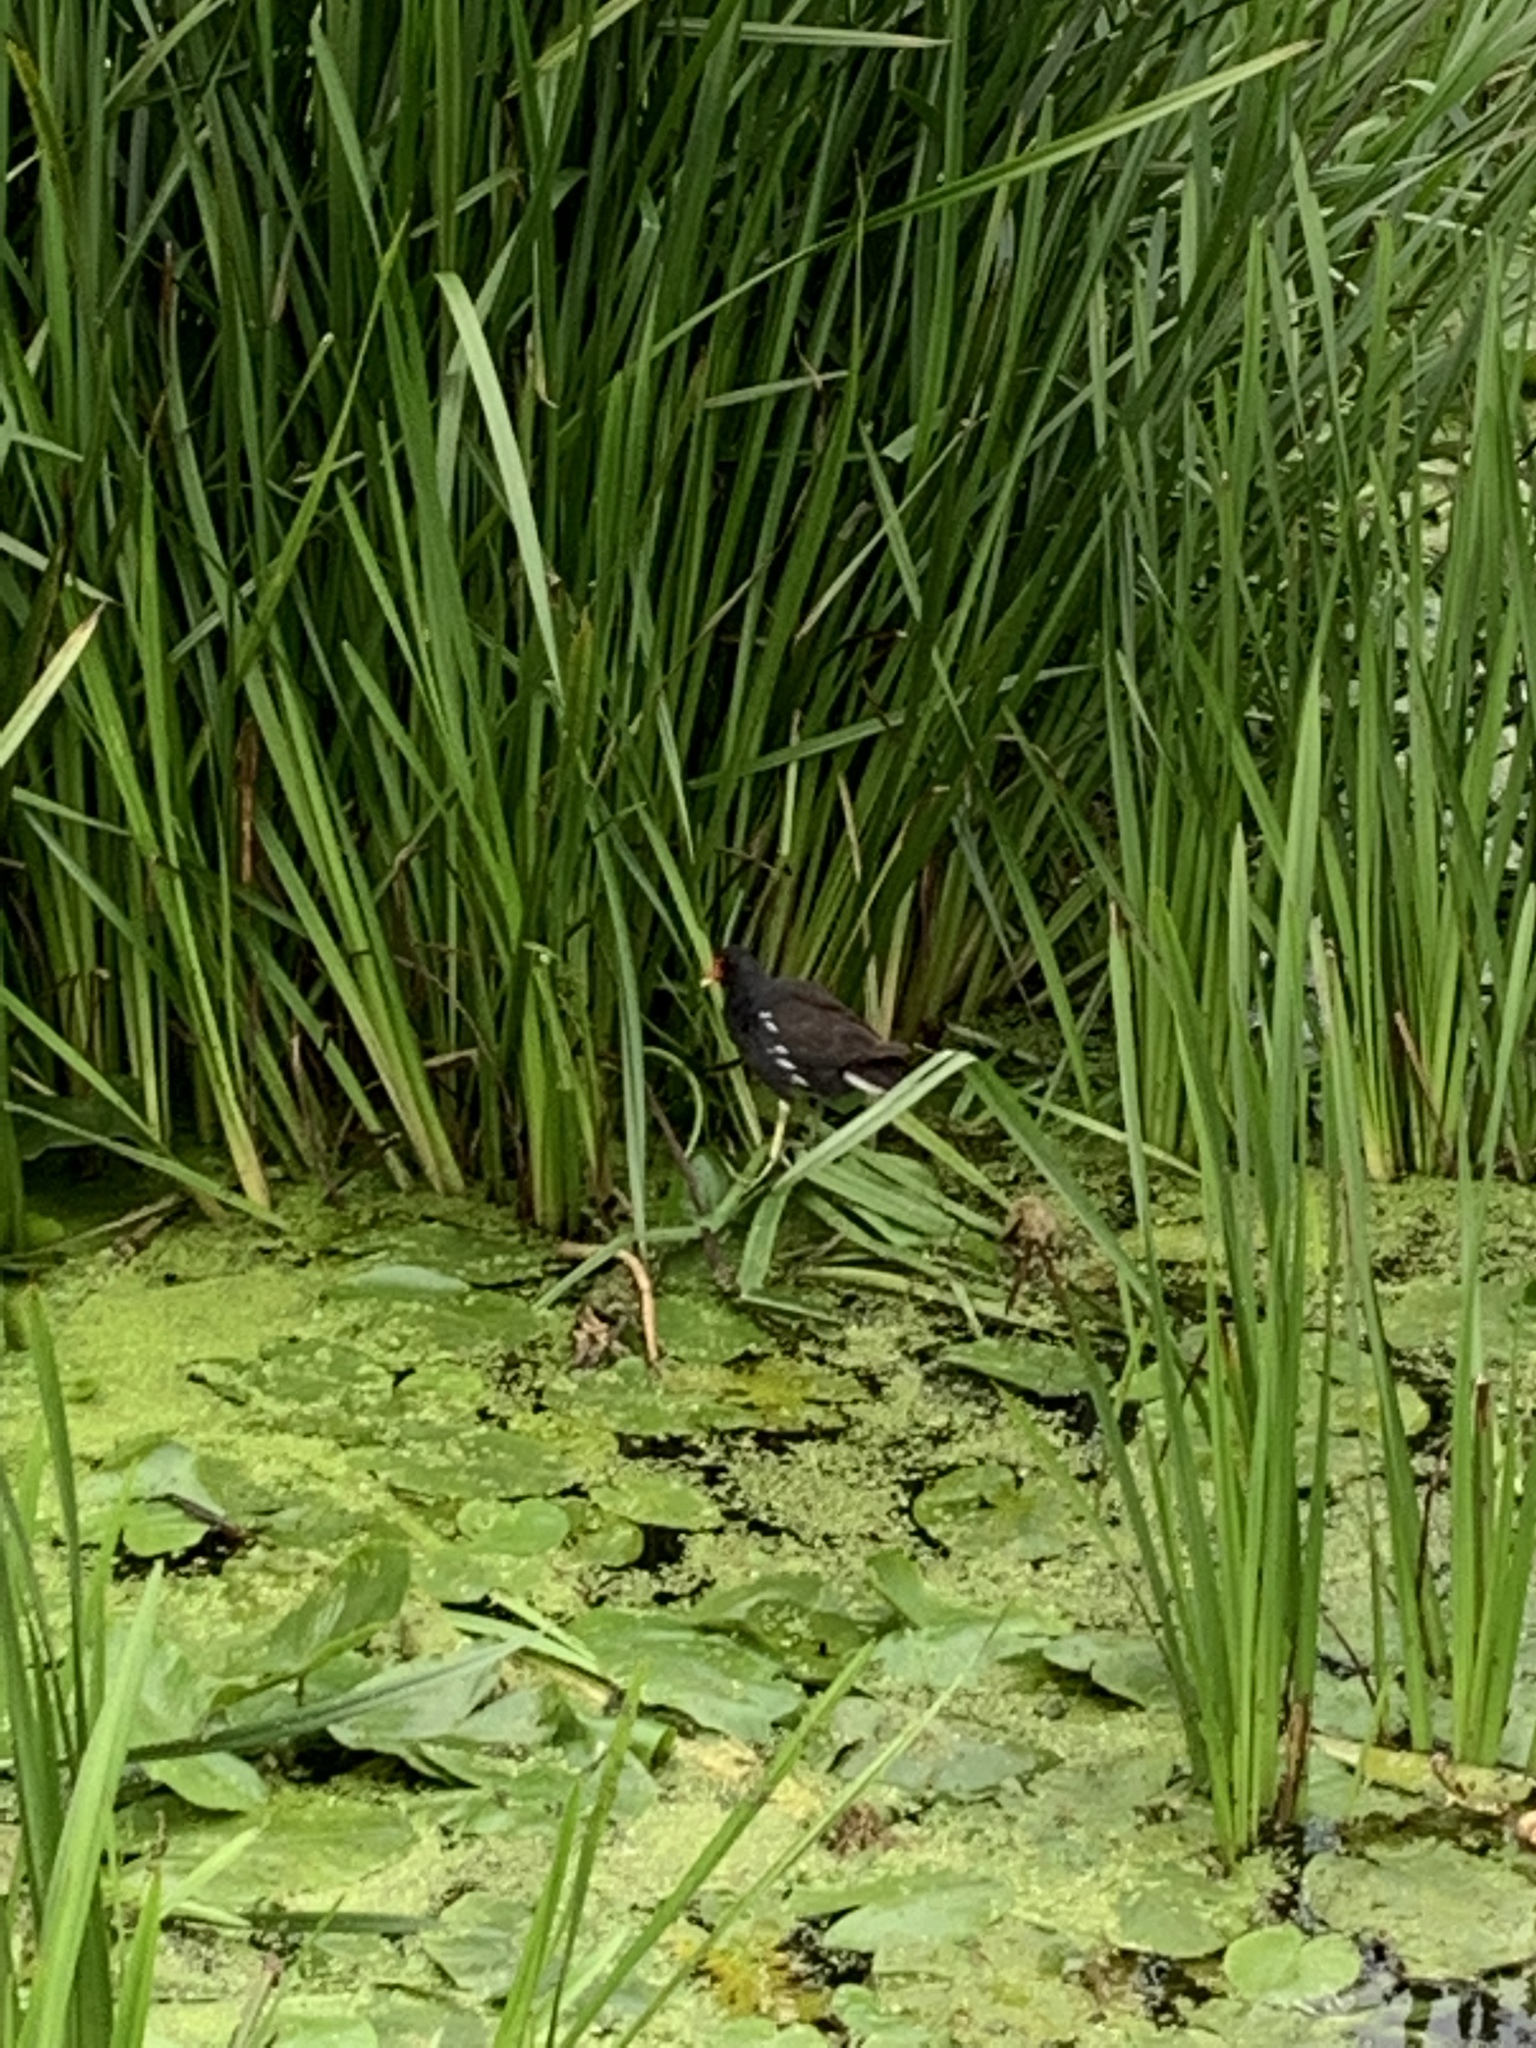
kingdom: Animalia
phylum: Chordata
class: Aves
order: Gruiformes
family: Rallidae
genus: Gallinula
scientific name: Gallinula chloropus
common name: Common moorhen
